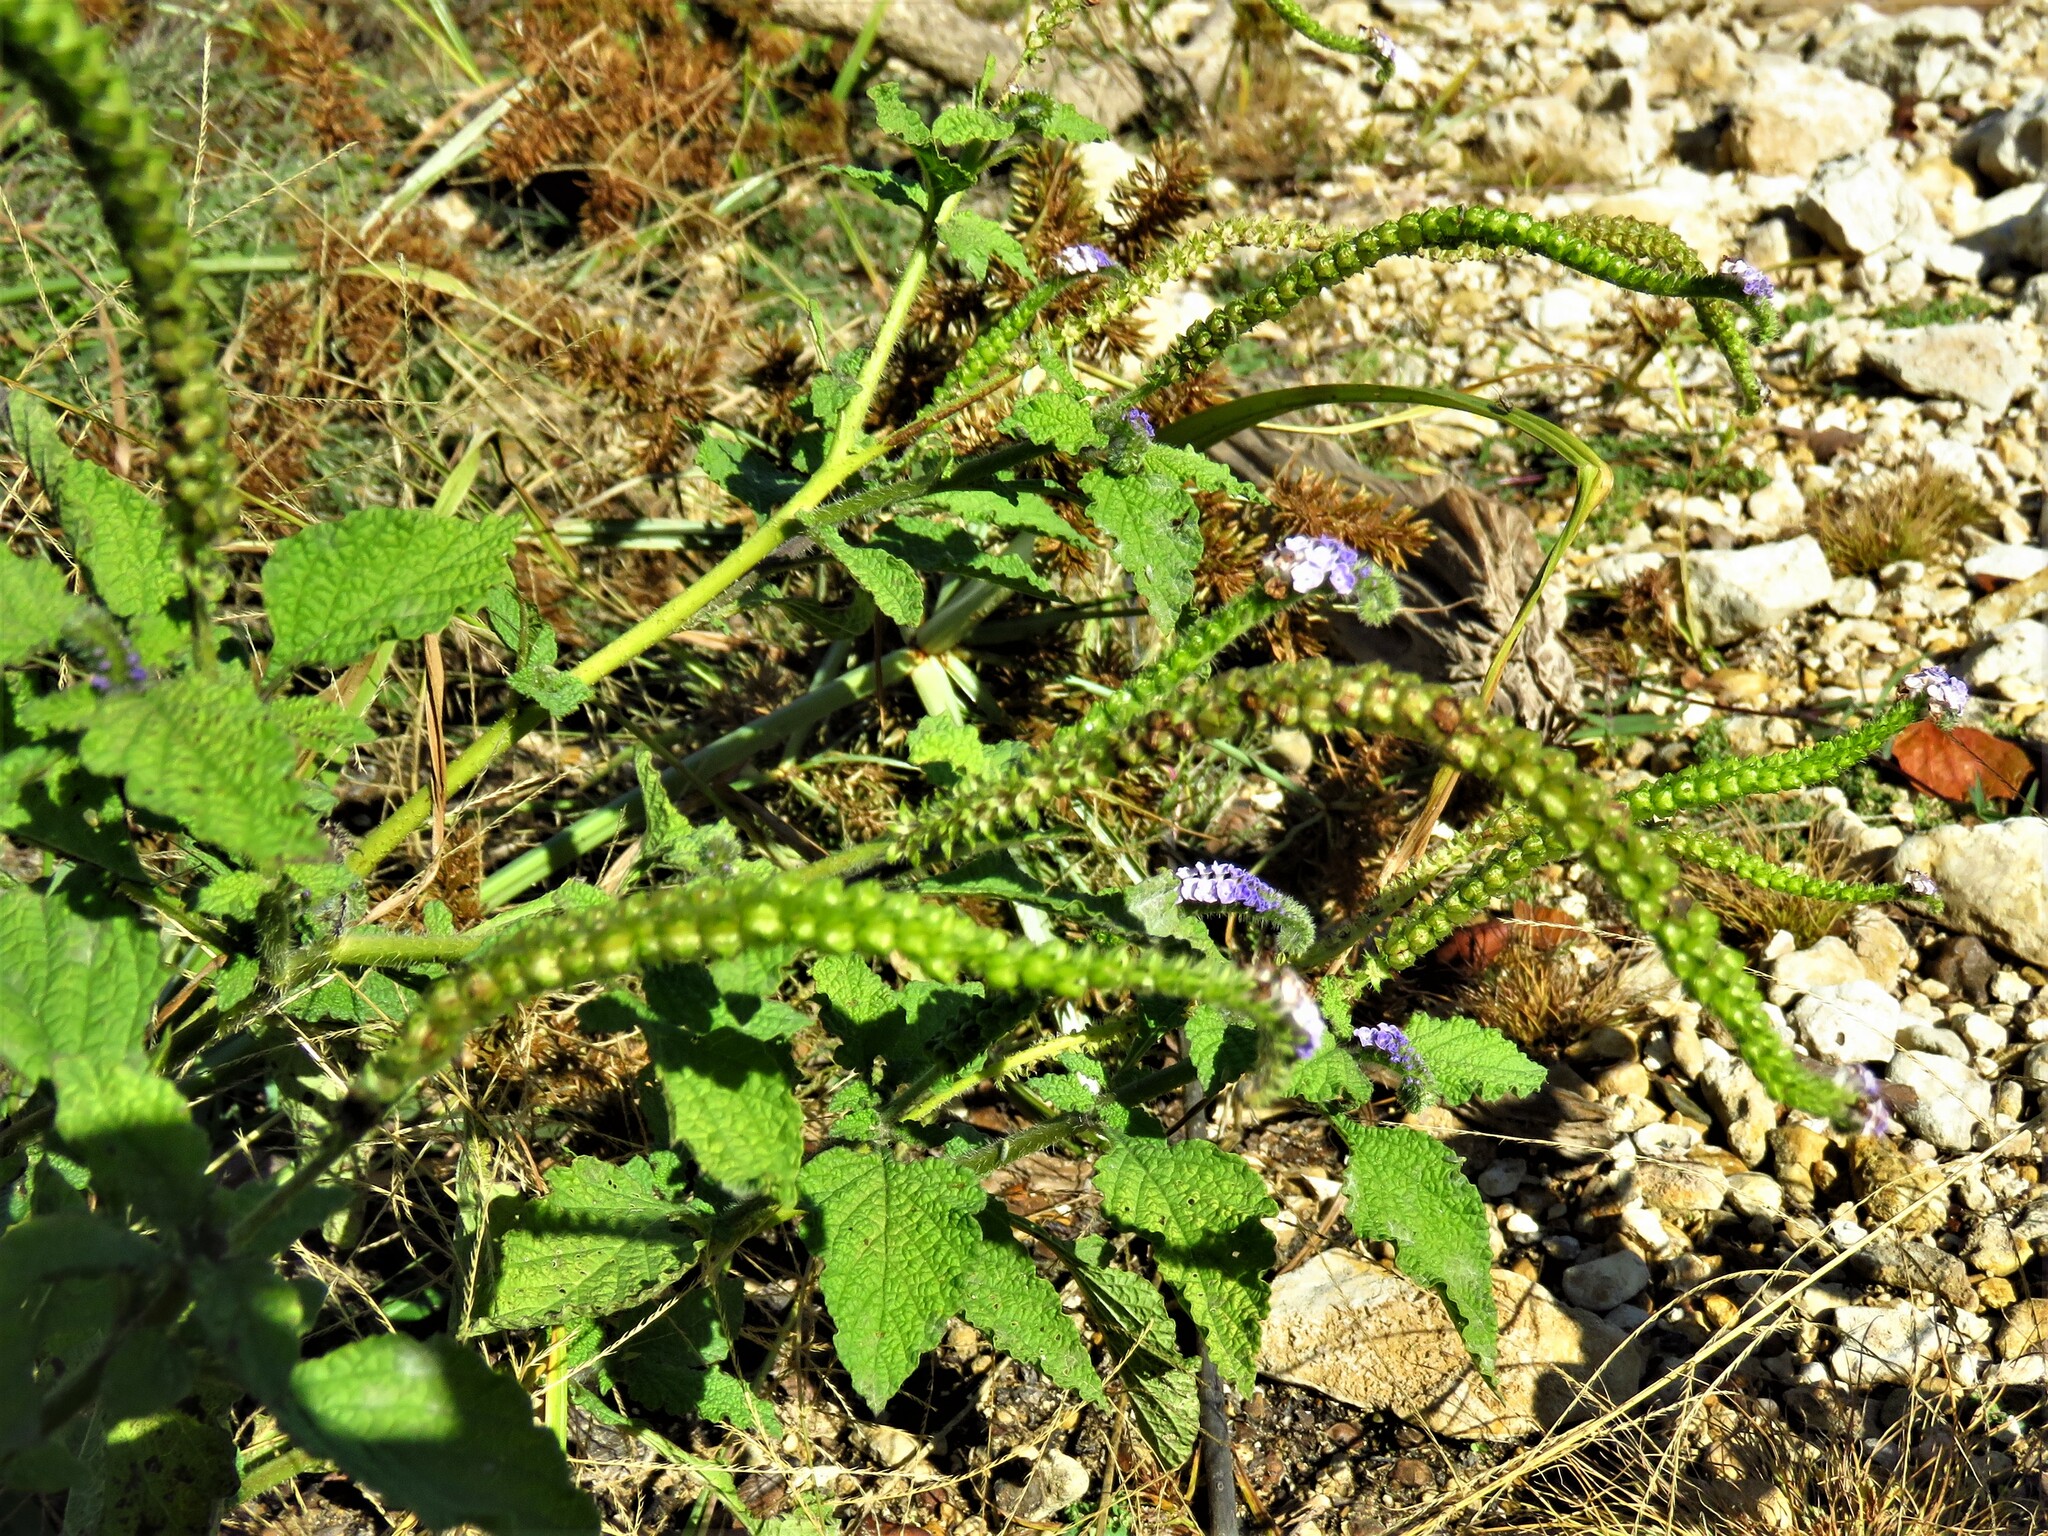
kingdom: Plantae
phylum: Tracheophyta
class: Magnoliopsida
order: Boraginales
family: Heliotropiaceae
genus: Heliotropium
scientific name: Heliotropium indicum
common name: Indian heliotrope
